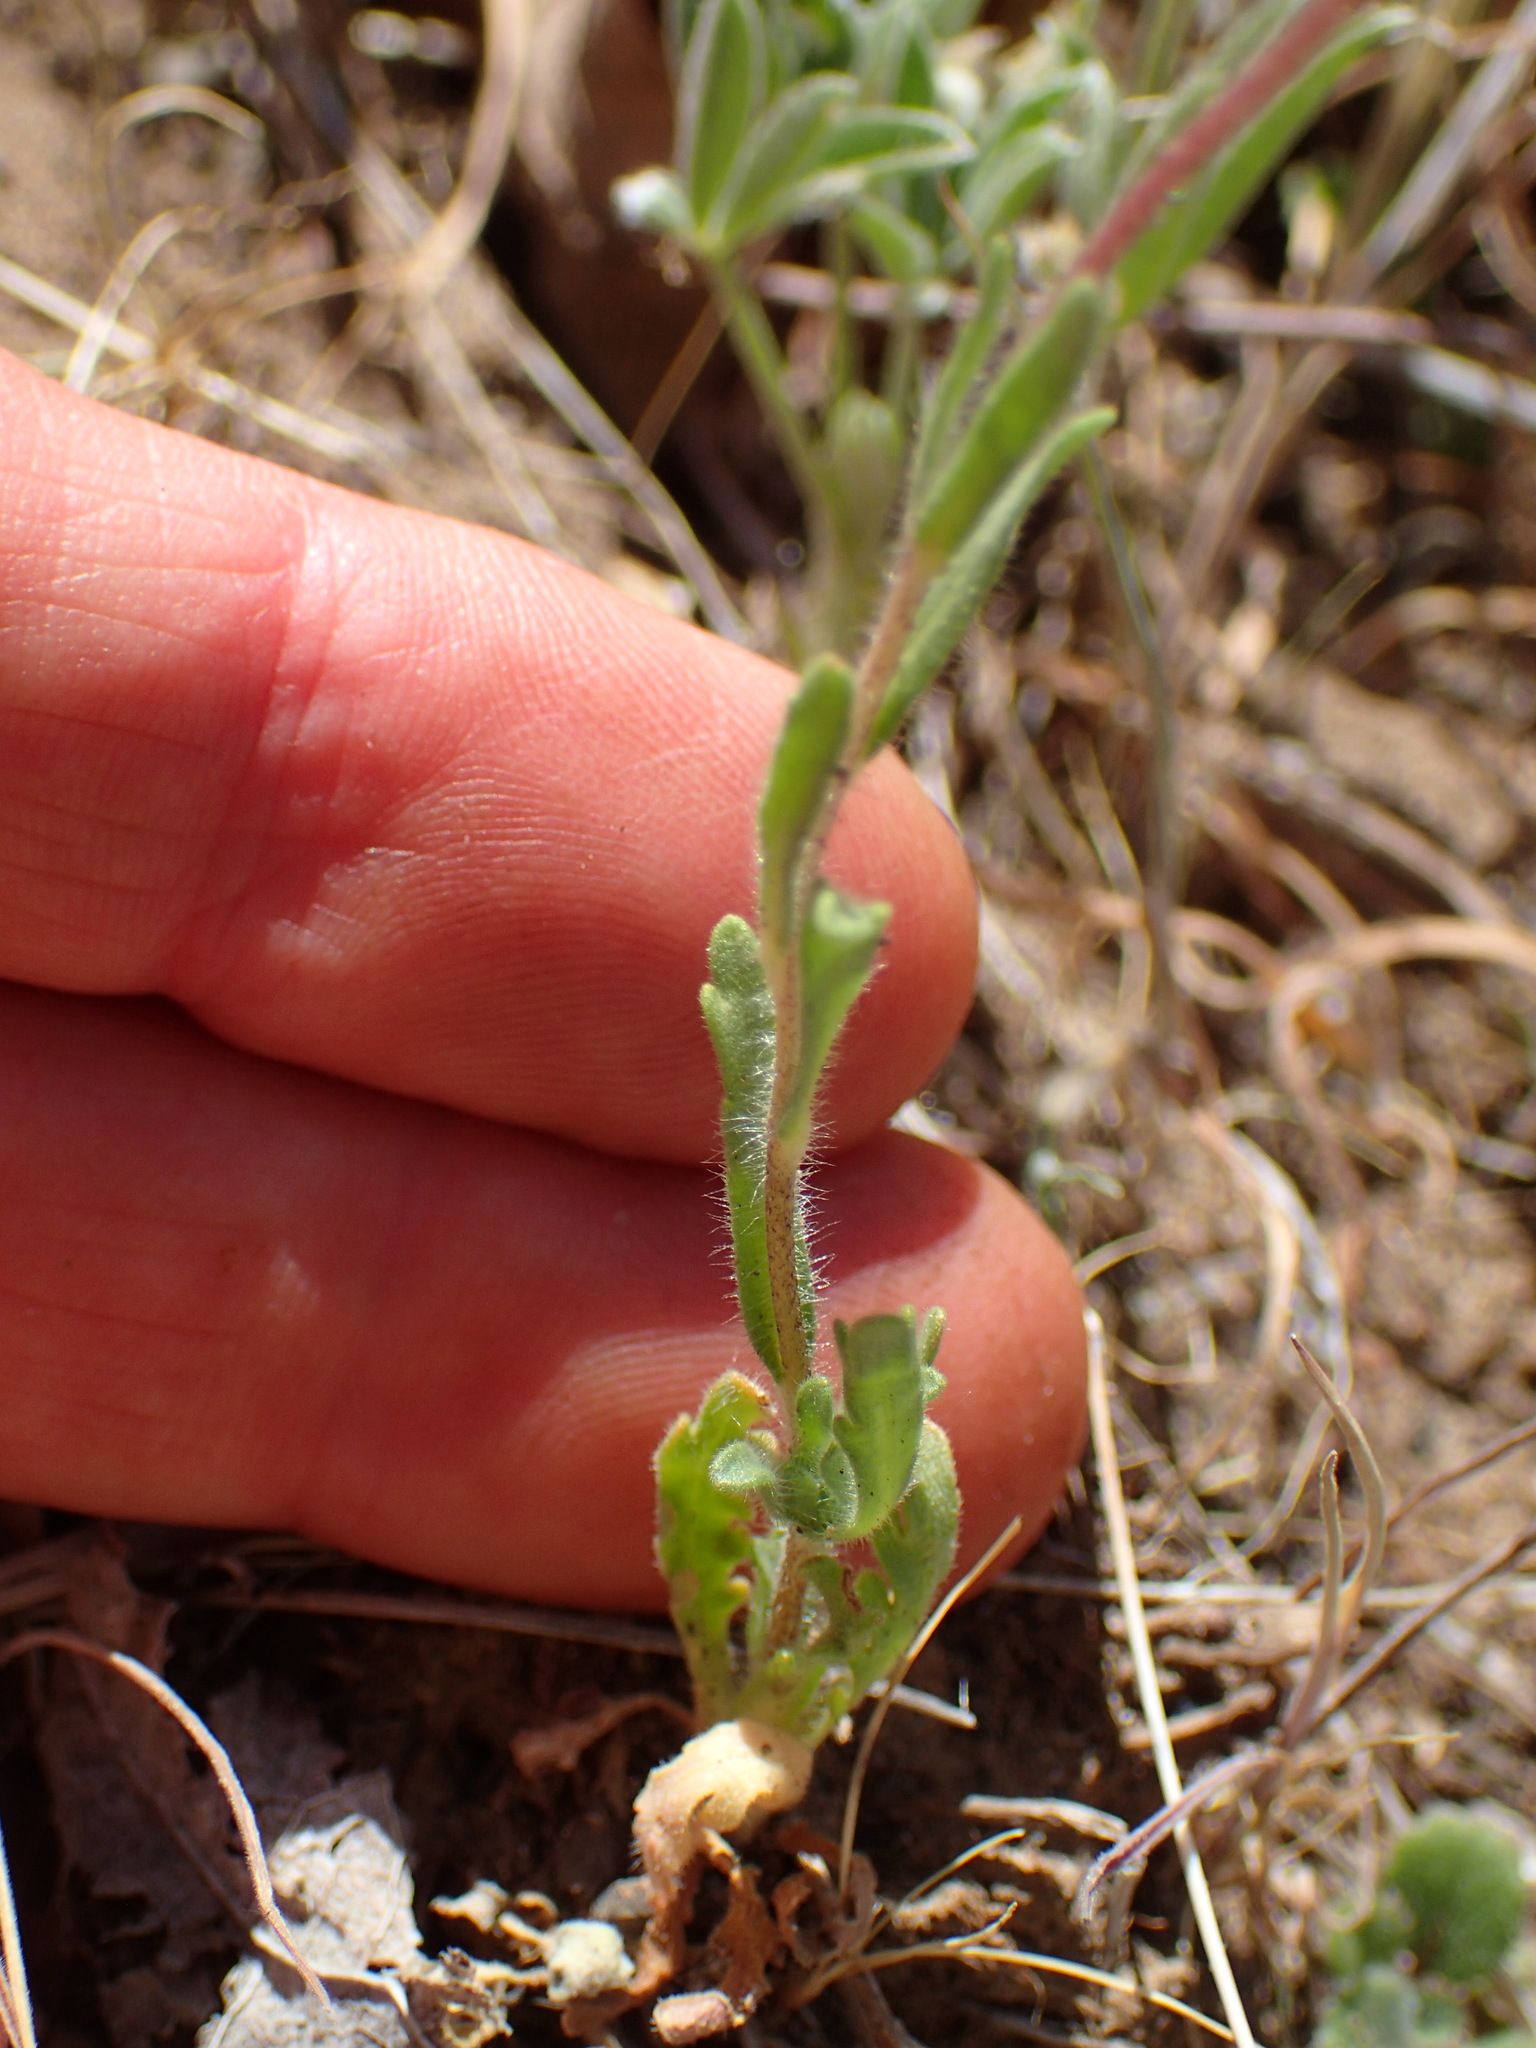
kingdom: Plantae
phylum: Tracheophyta
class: Magnoliopsida
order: Asterales
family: Asteraceae
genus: Layia
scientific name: Layia platyglossa
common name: Tidy-tips
